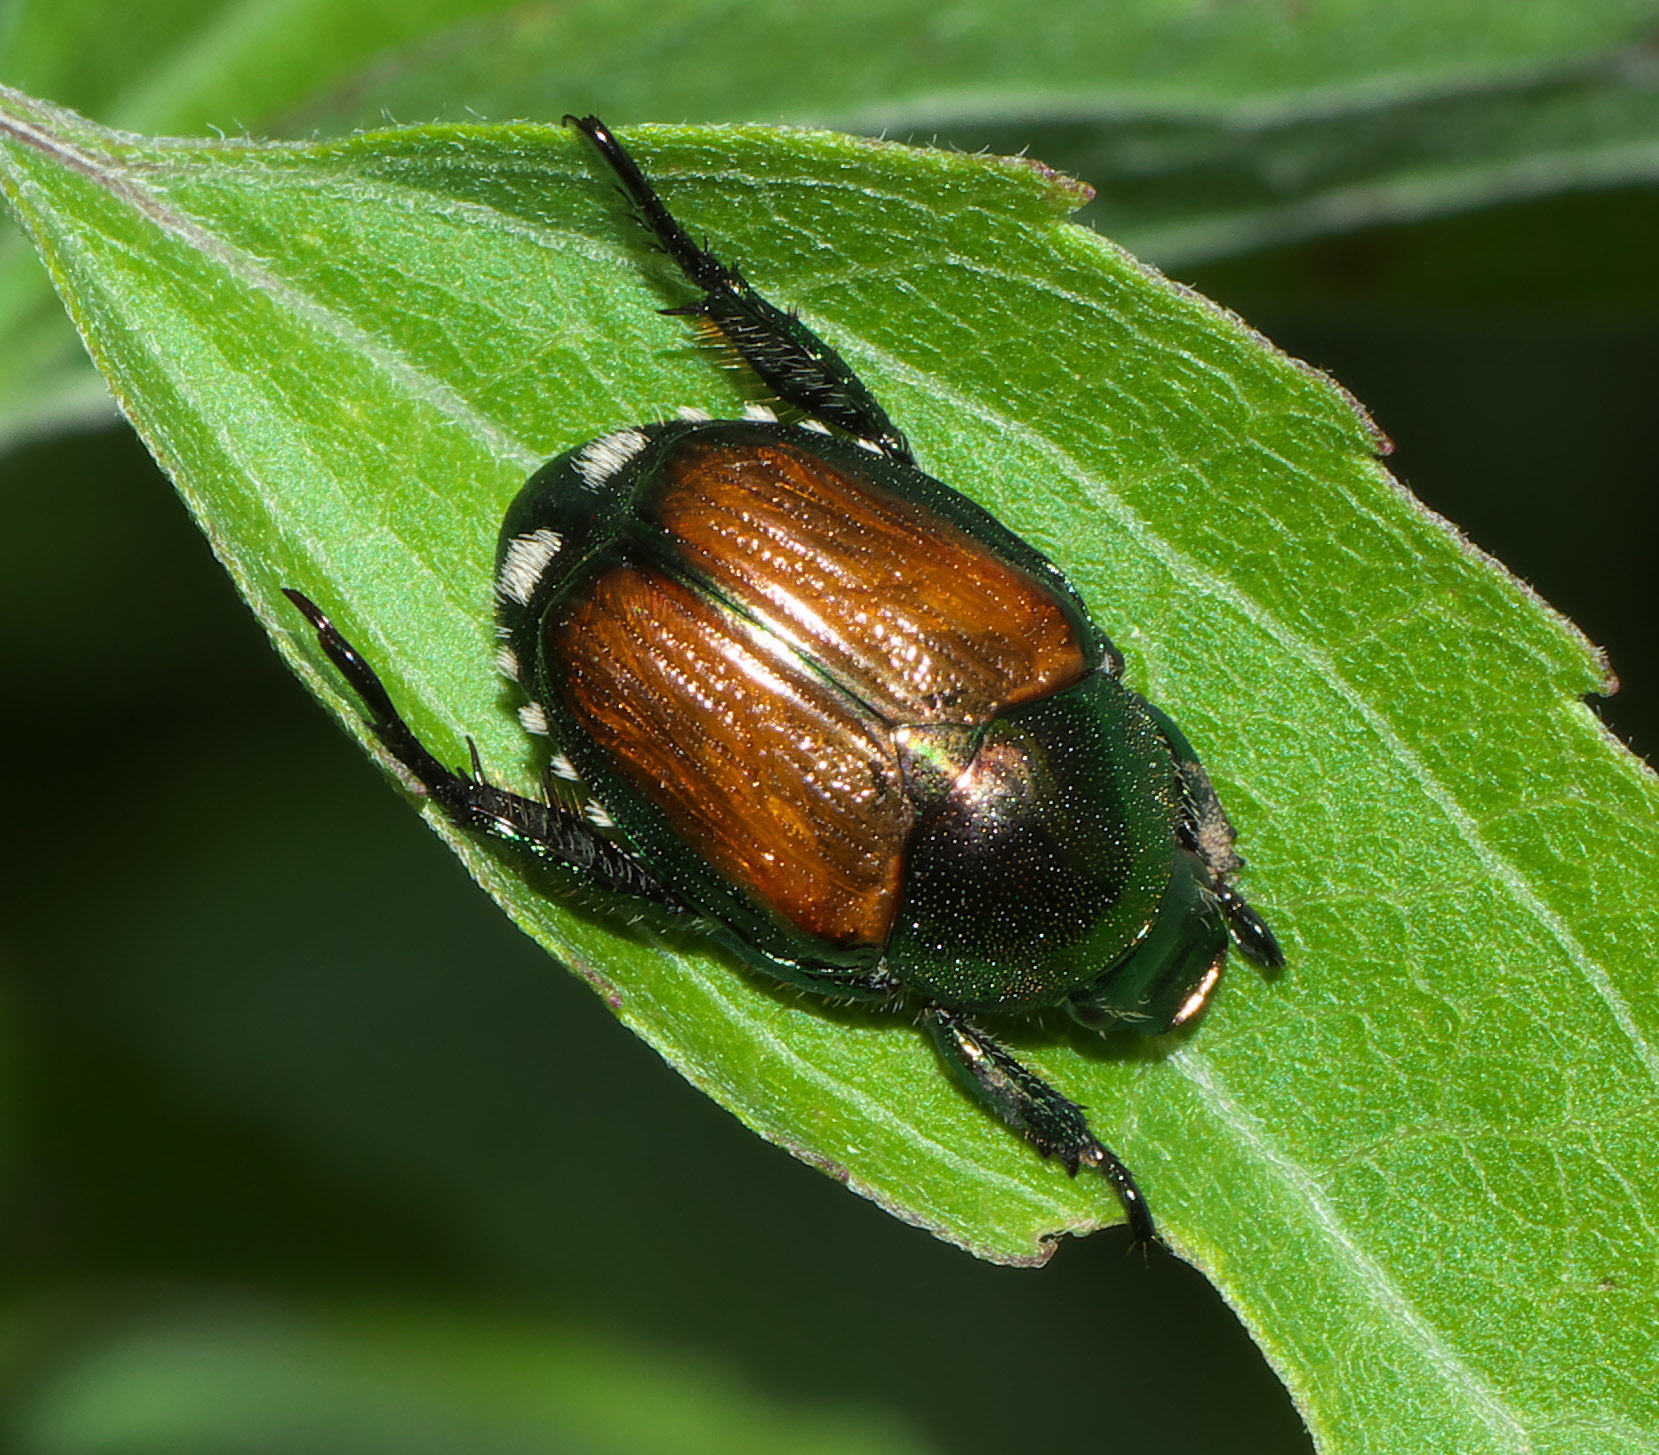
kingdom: Animalia
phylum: Arthropoda
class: Insecta
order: Coleoptera
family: Scarabaeidae
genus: Popillia
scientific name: Popillia japonica
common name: Japanese beetle
